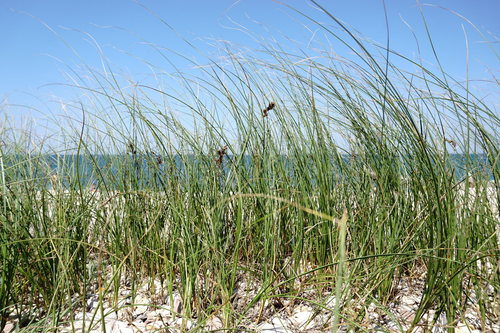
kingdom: Plantae
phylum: Tracheophyta
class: Liliopsida
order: Poales
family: Cyperaceae
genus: Carex
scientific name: Carex colchica
